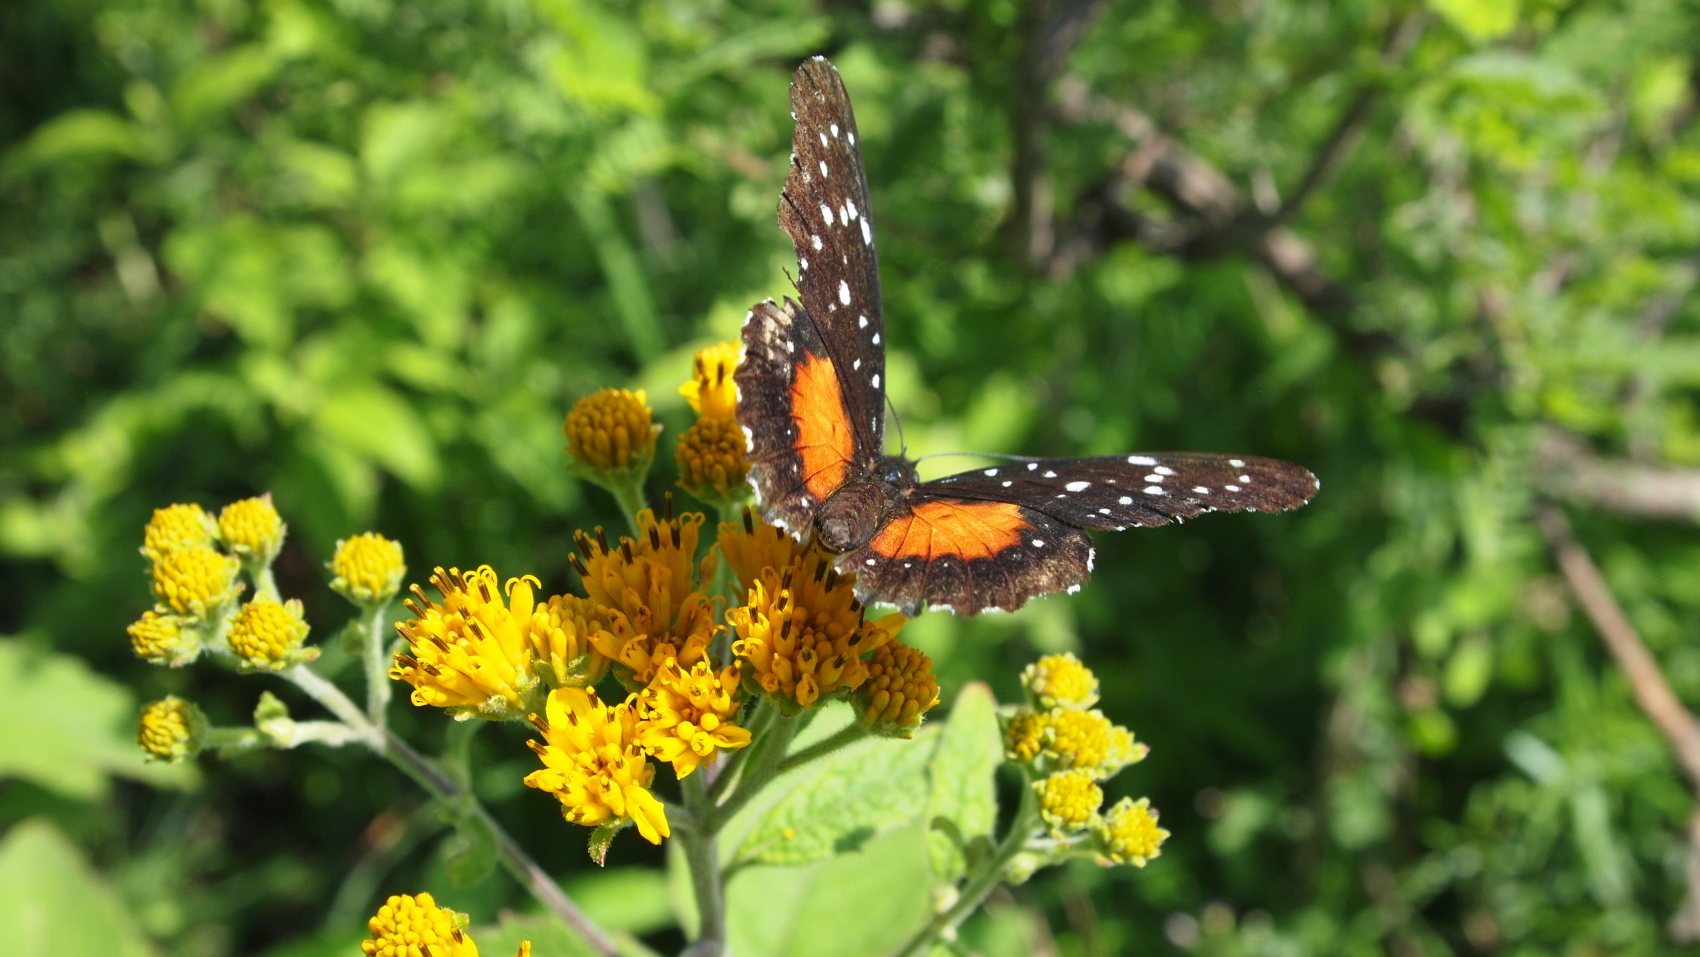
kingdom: Animalia
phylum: Arthropoda
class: Insecta
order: Lepidoptera
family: Nymphalidae
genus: Chlosyne
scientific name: Chlosyne janais
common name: Crimson patch
